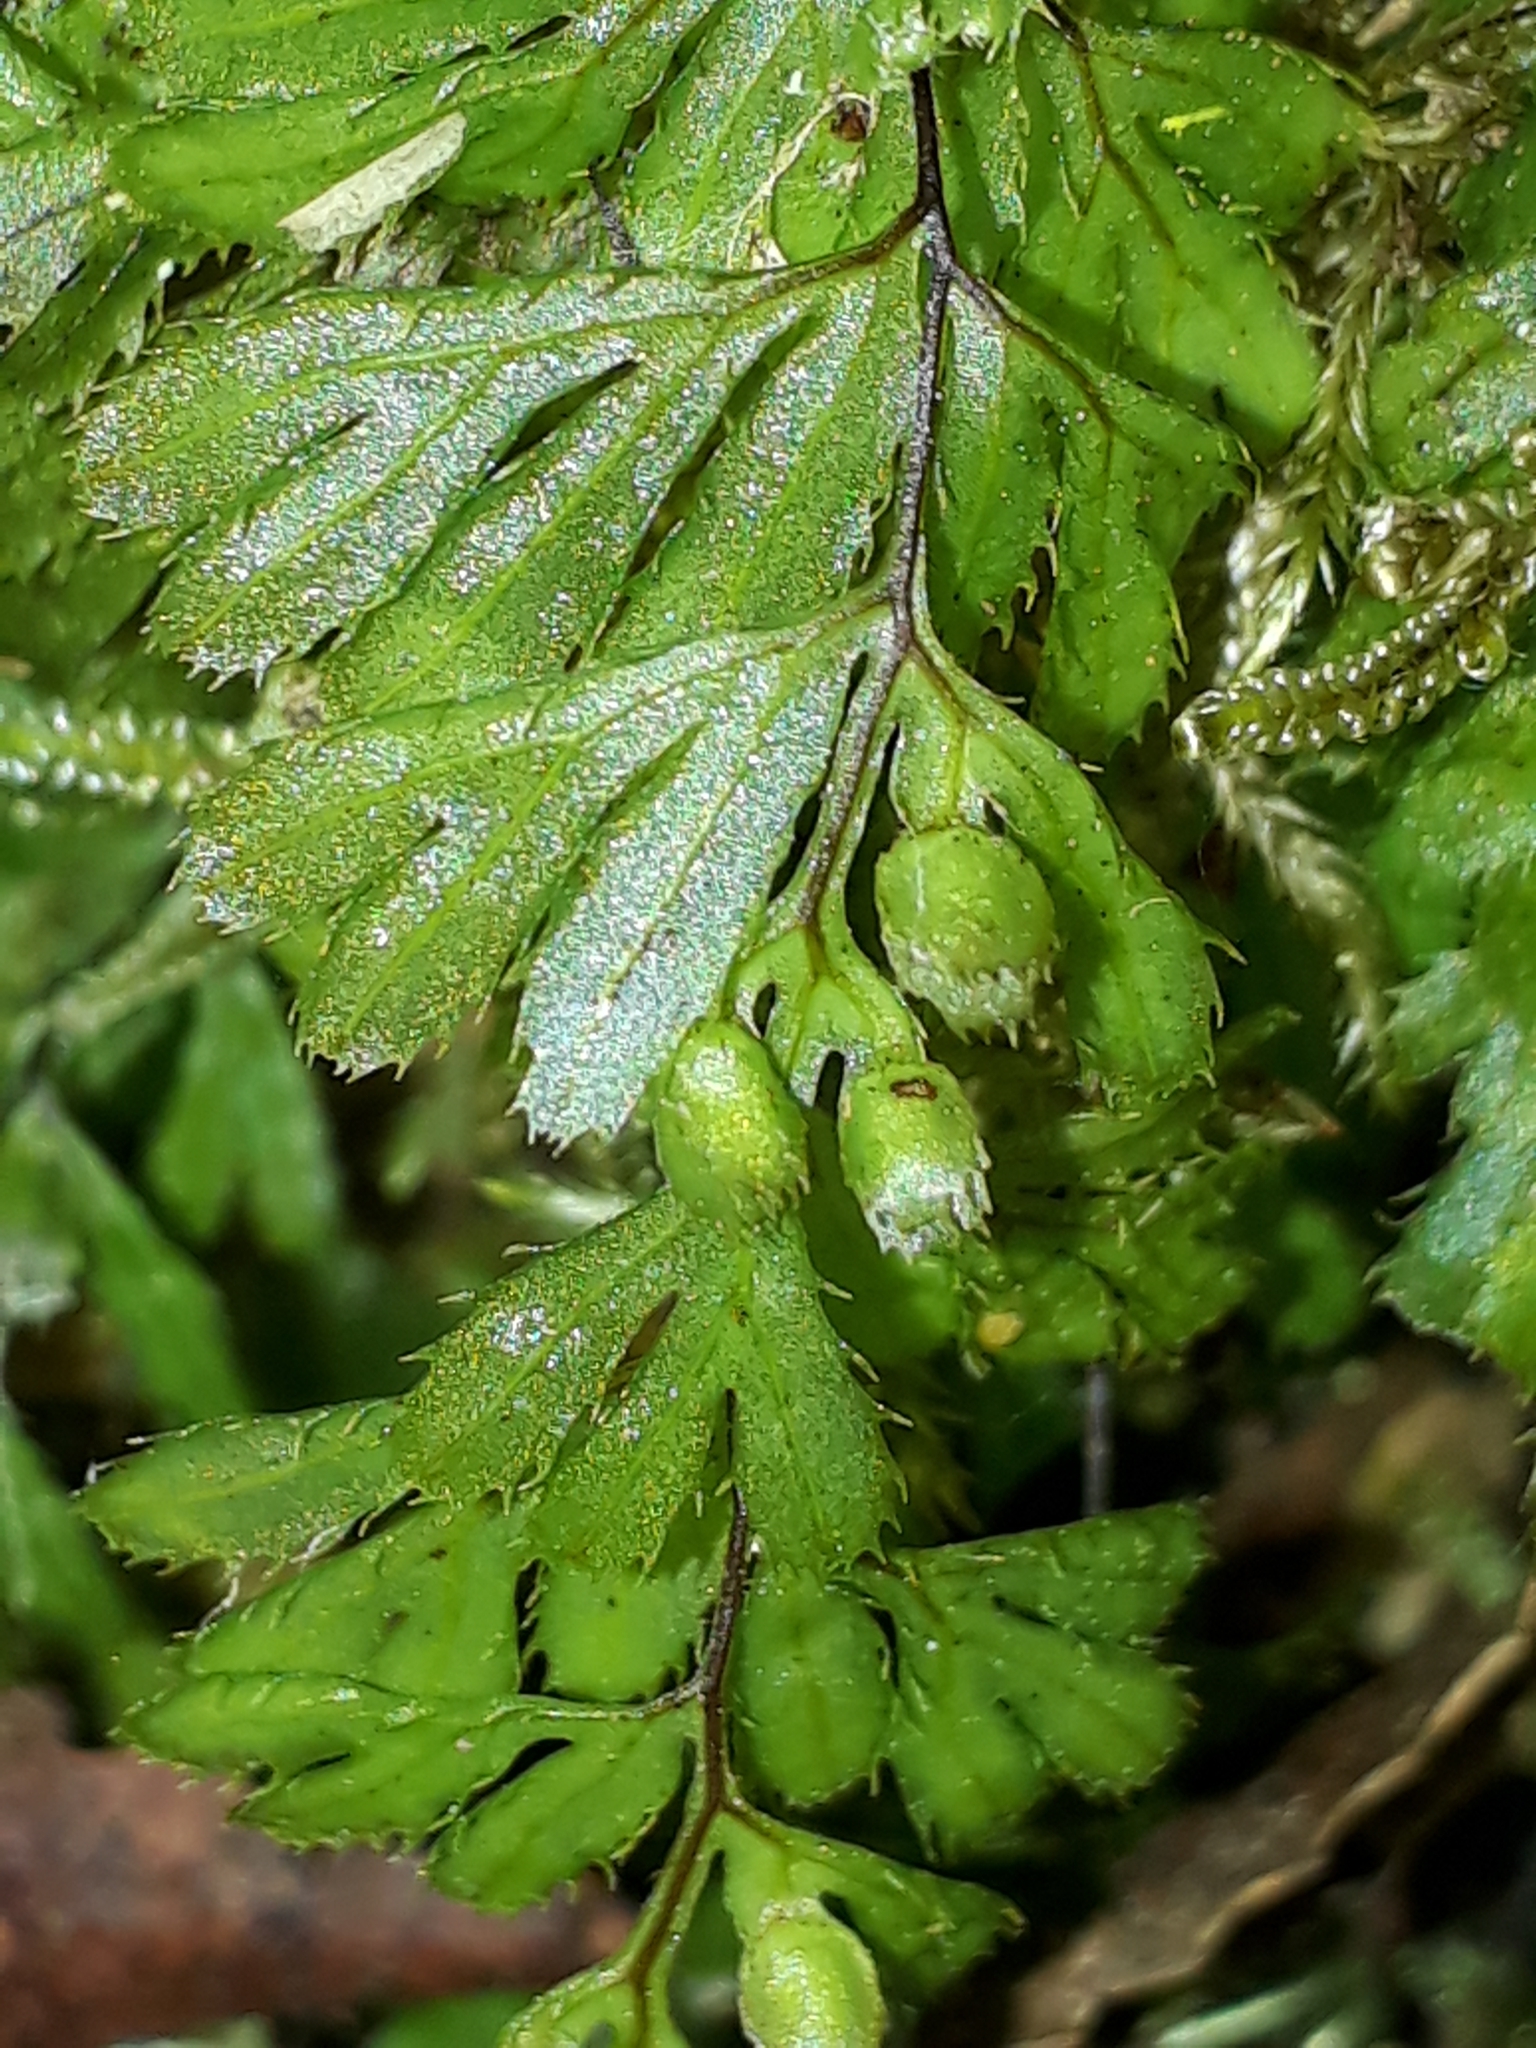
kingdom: Plantae
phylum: Tracheophyta
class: Polypodiopsida
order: Hymenophyllales
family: Hymenophyllaceae
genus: Hymenophyllum
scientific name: Hymenophyllum revolutum
